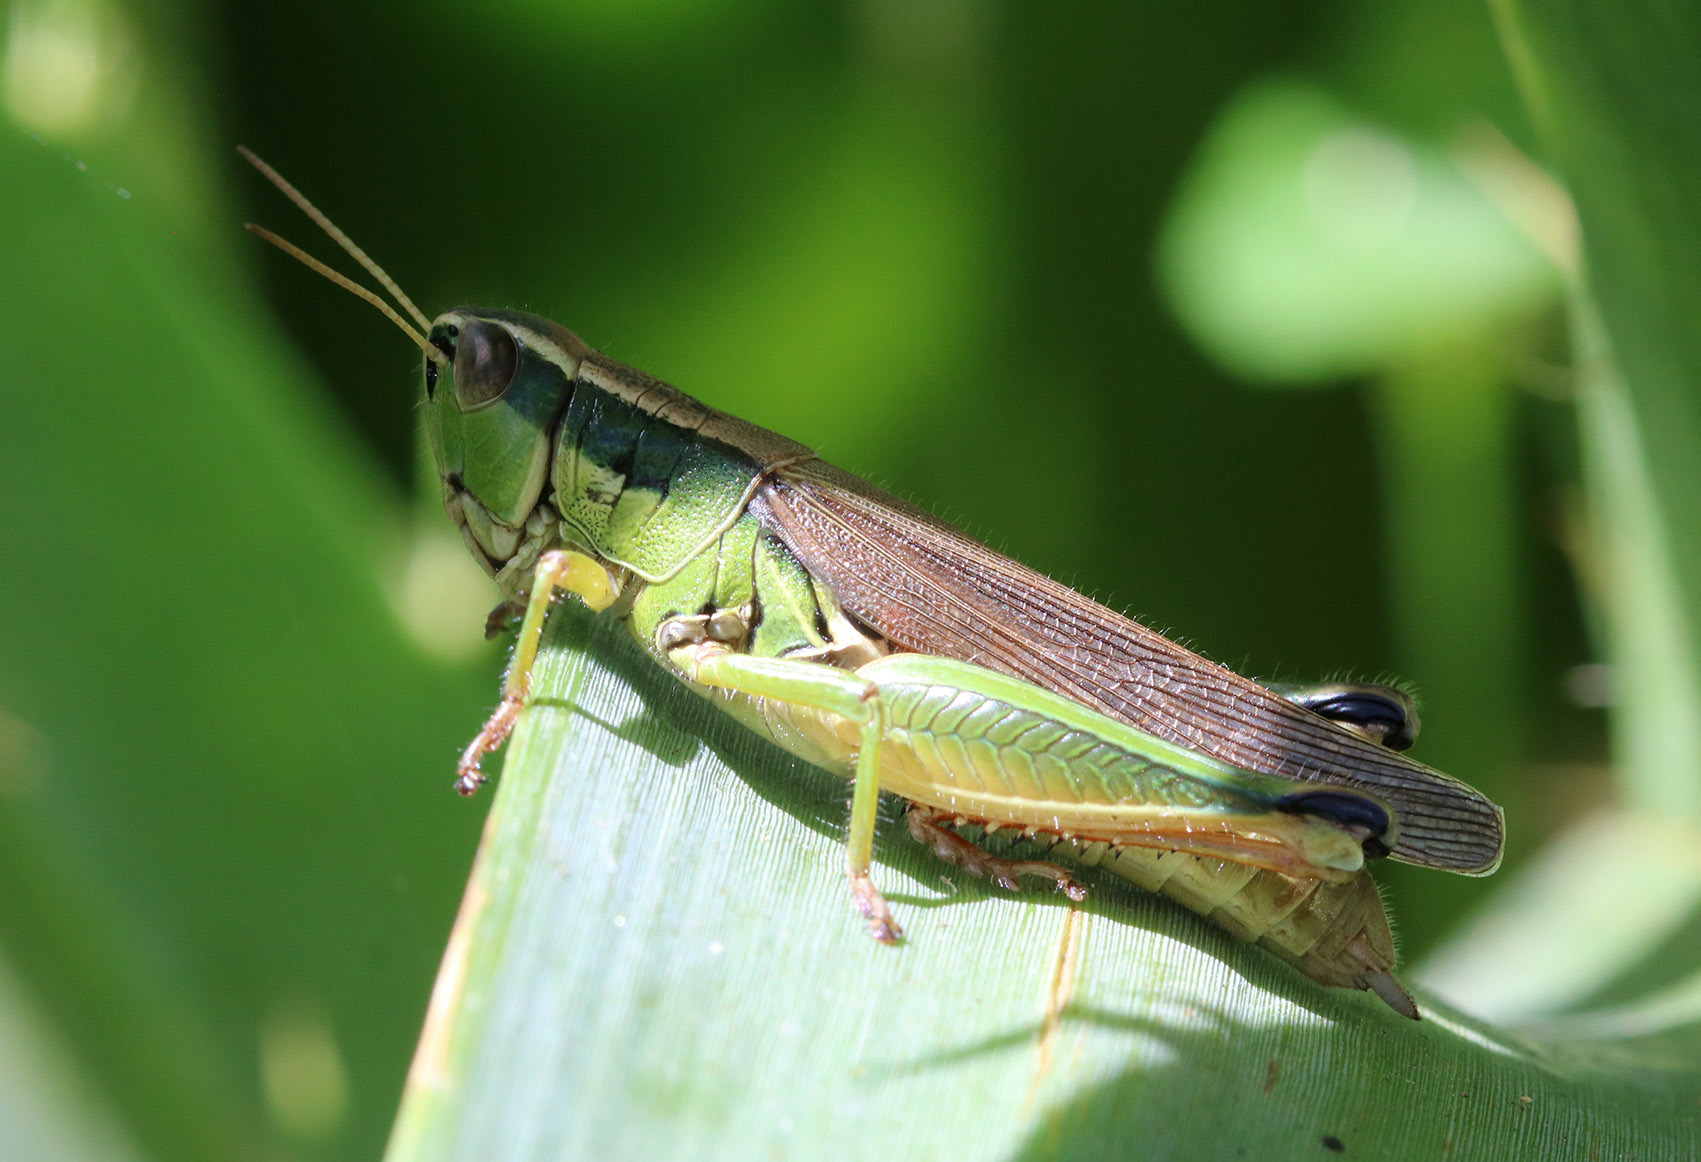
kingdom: Animalia
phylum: Arthropoda
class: Insecta
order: Orthoptera
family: Acrididae
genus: Scotussa
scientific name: Scotussa cliens
